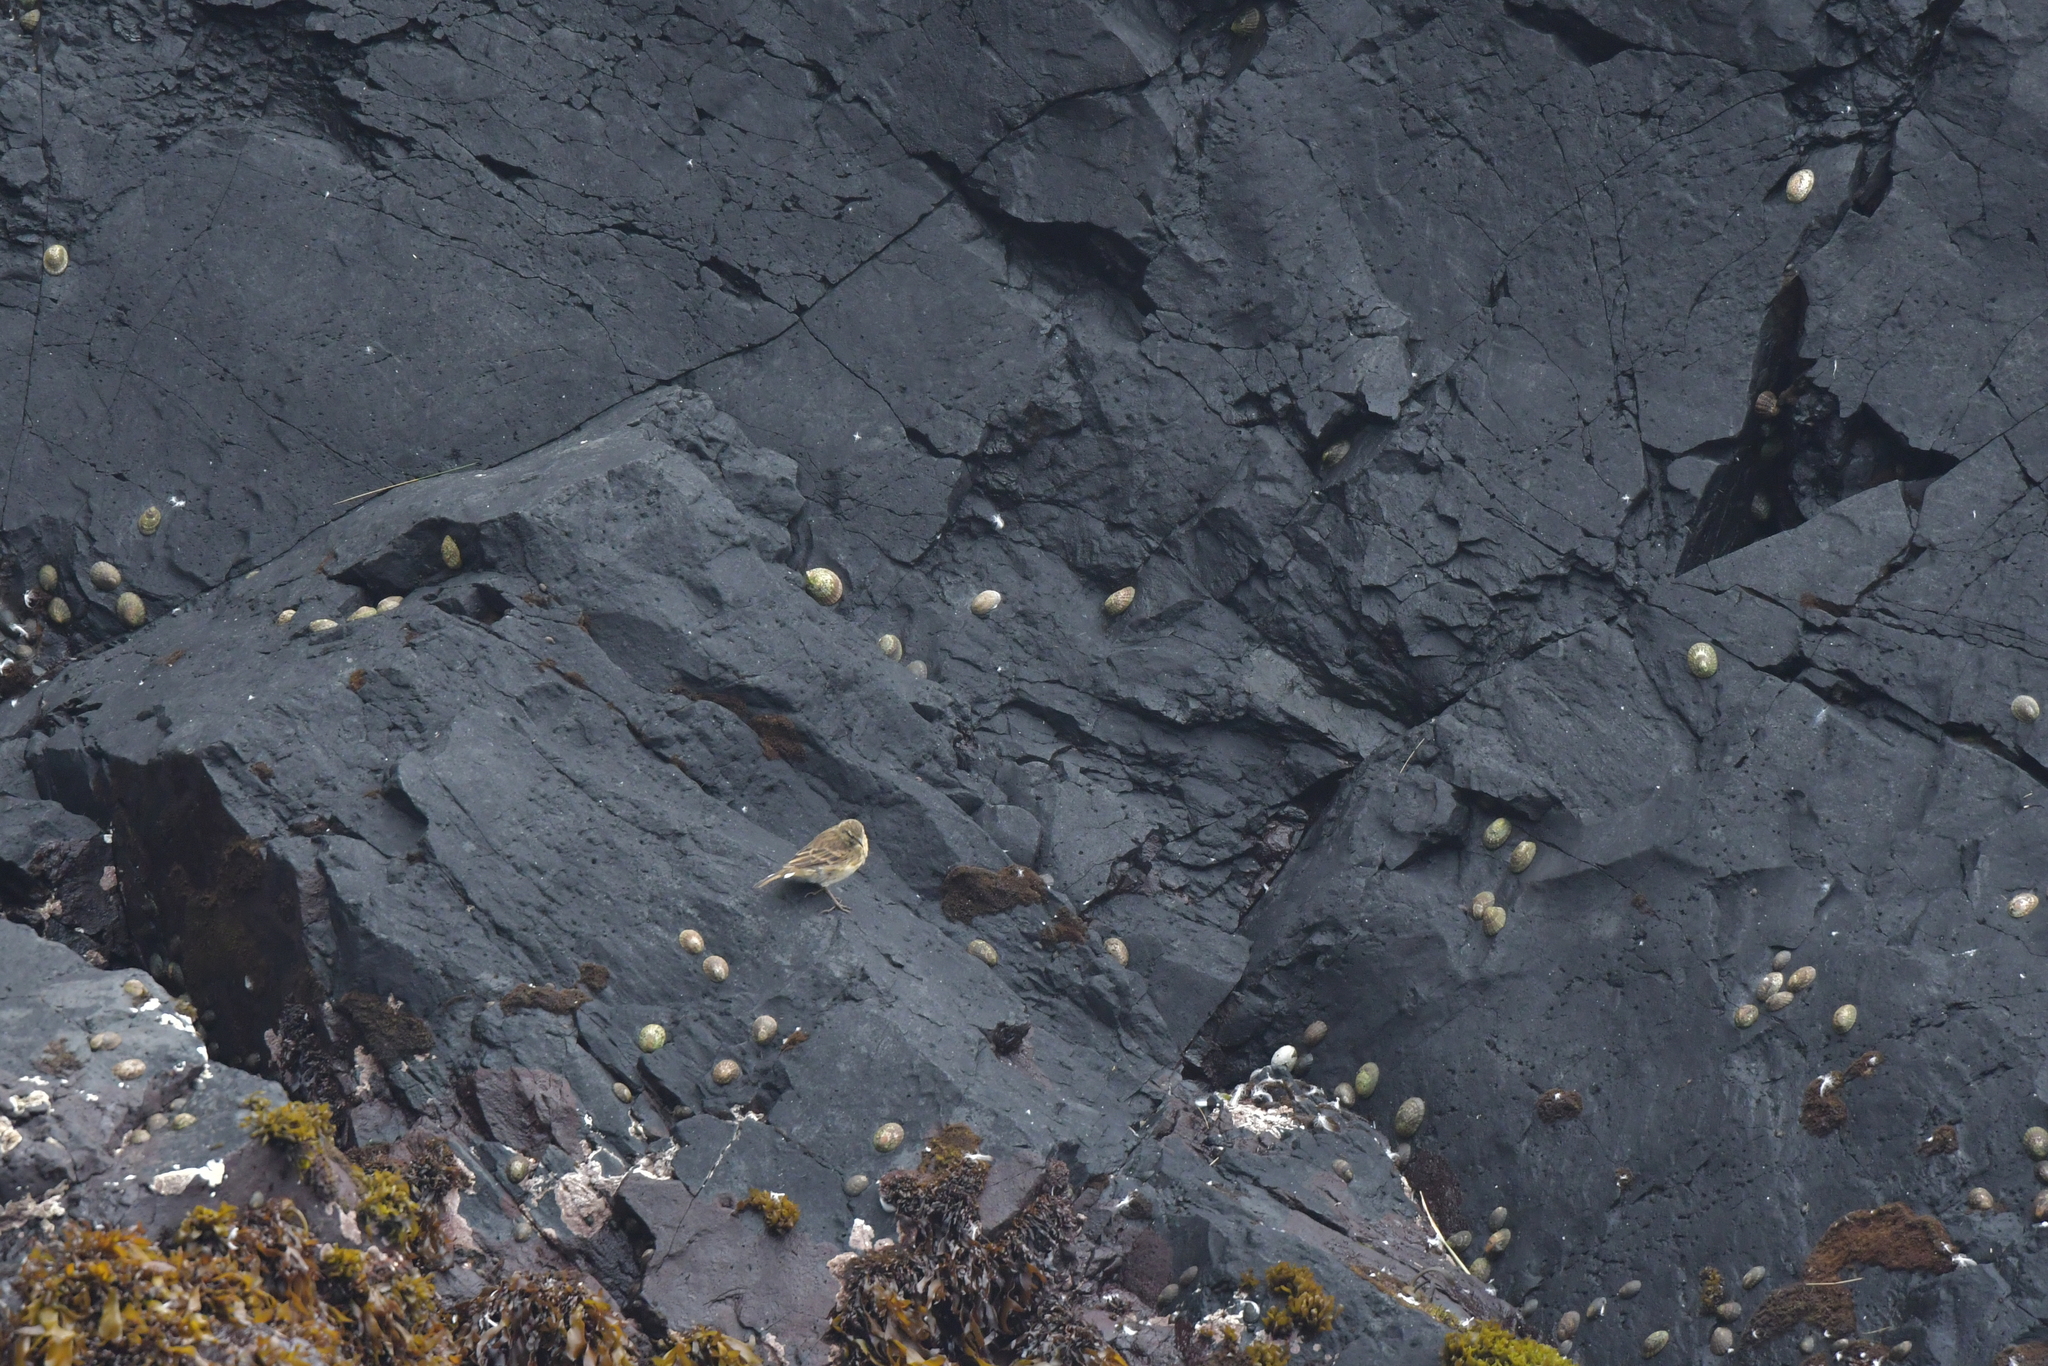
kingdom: Animalia
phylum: Chordata
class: Aves
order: Passeriformes
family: Motacillidae
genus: Anthus
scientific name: Anthus novaeseelandiae
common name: New zealand pipit
